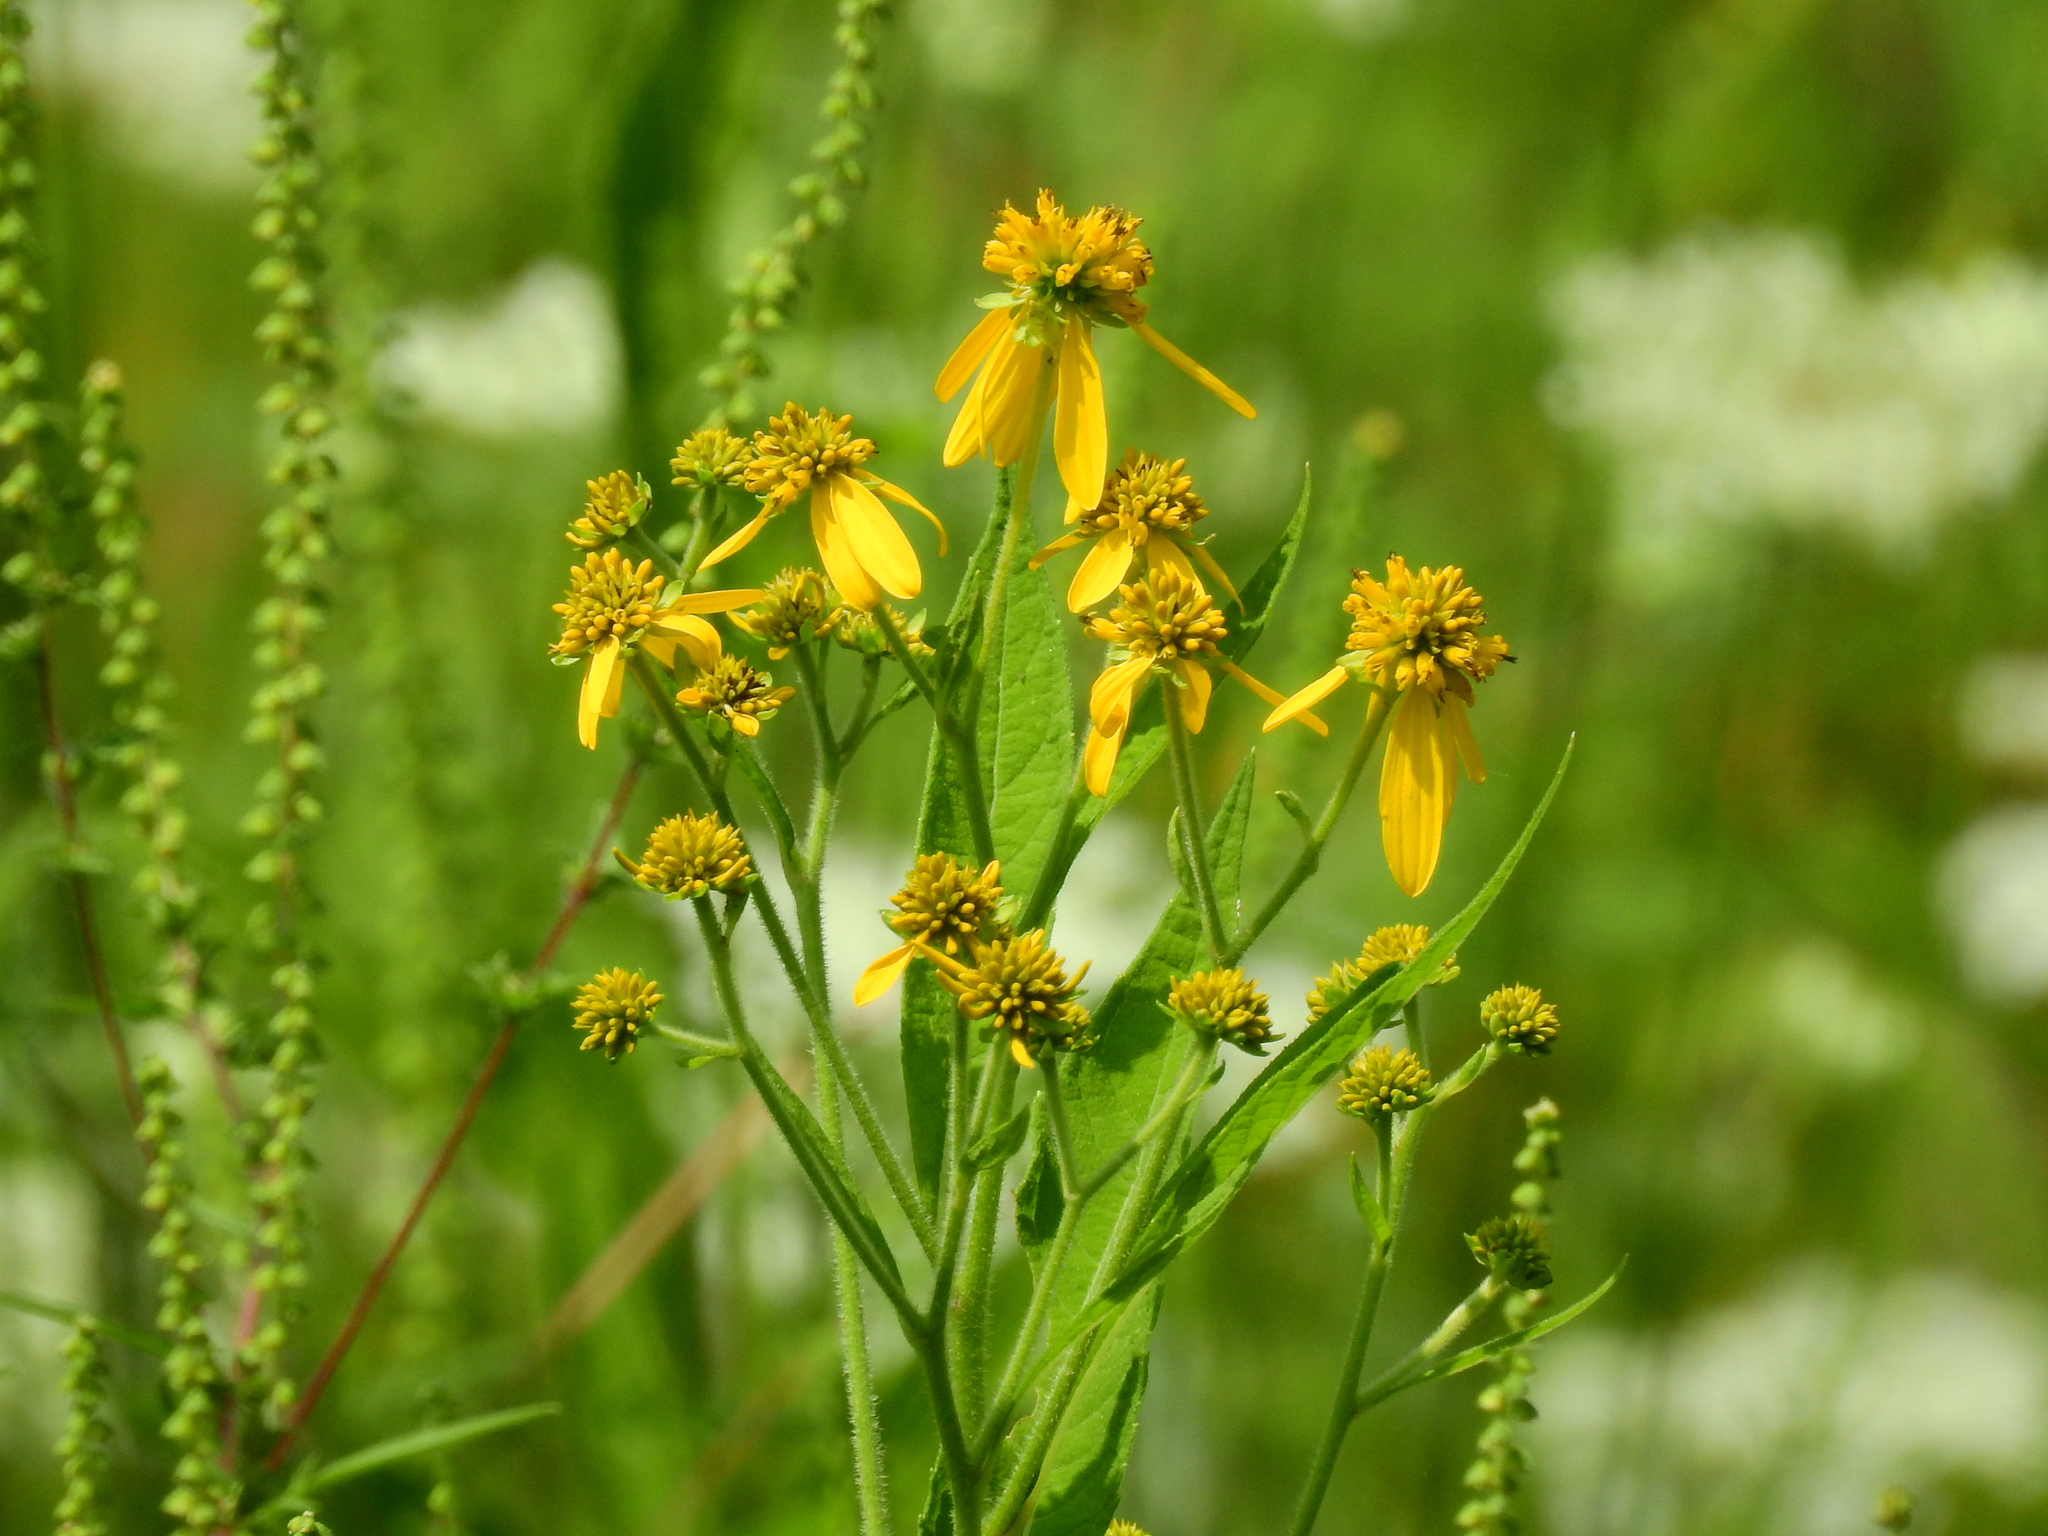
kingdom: Plantae
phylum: Tracheophyta
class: Magnoliopsida
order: Asterales
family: Asteraceae
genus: Verbesina
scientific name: Verbesina alternifolia
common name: Wingstem
